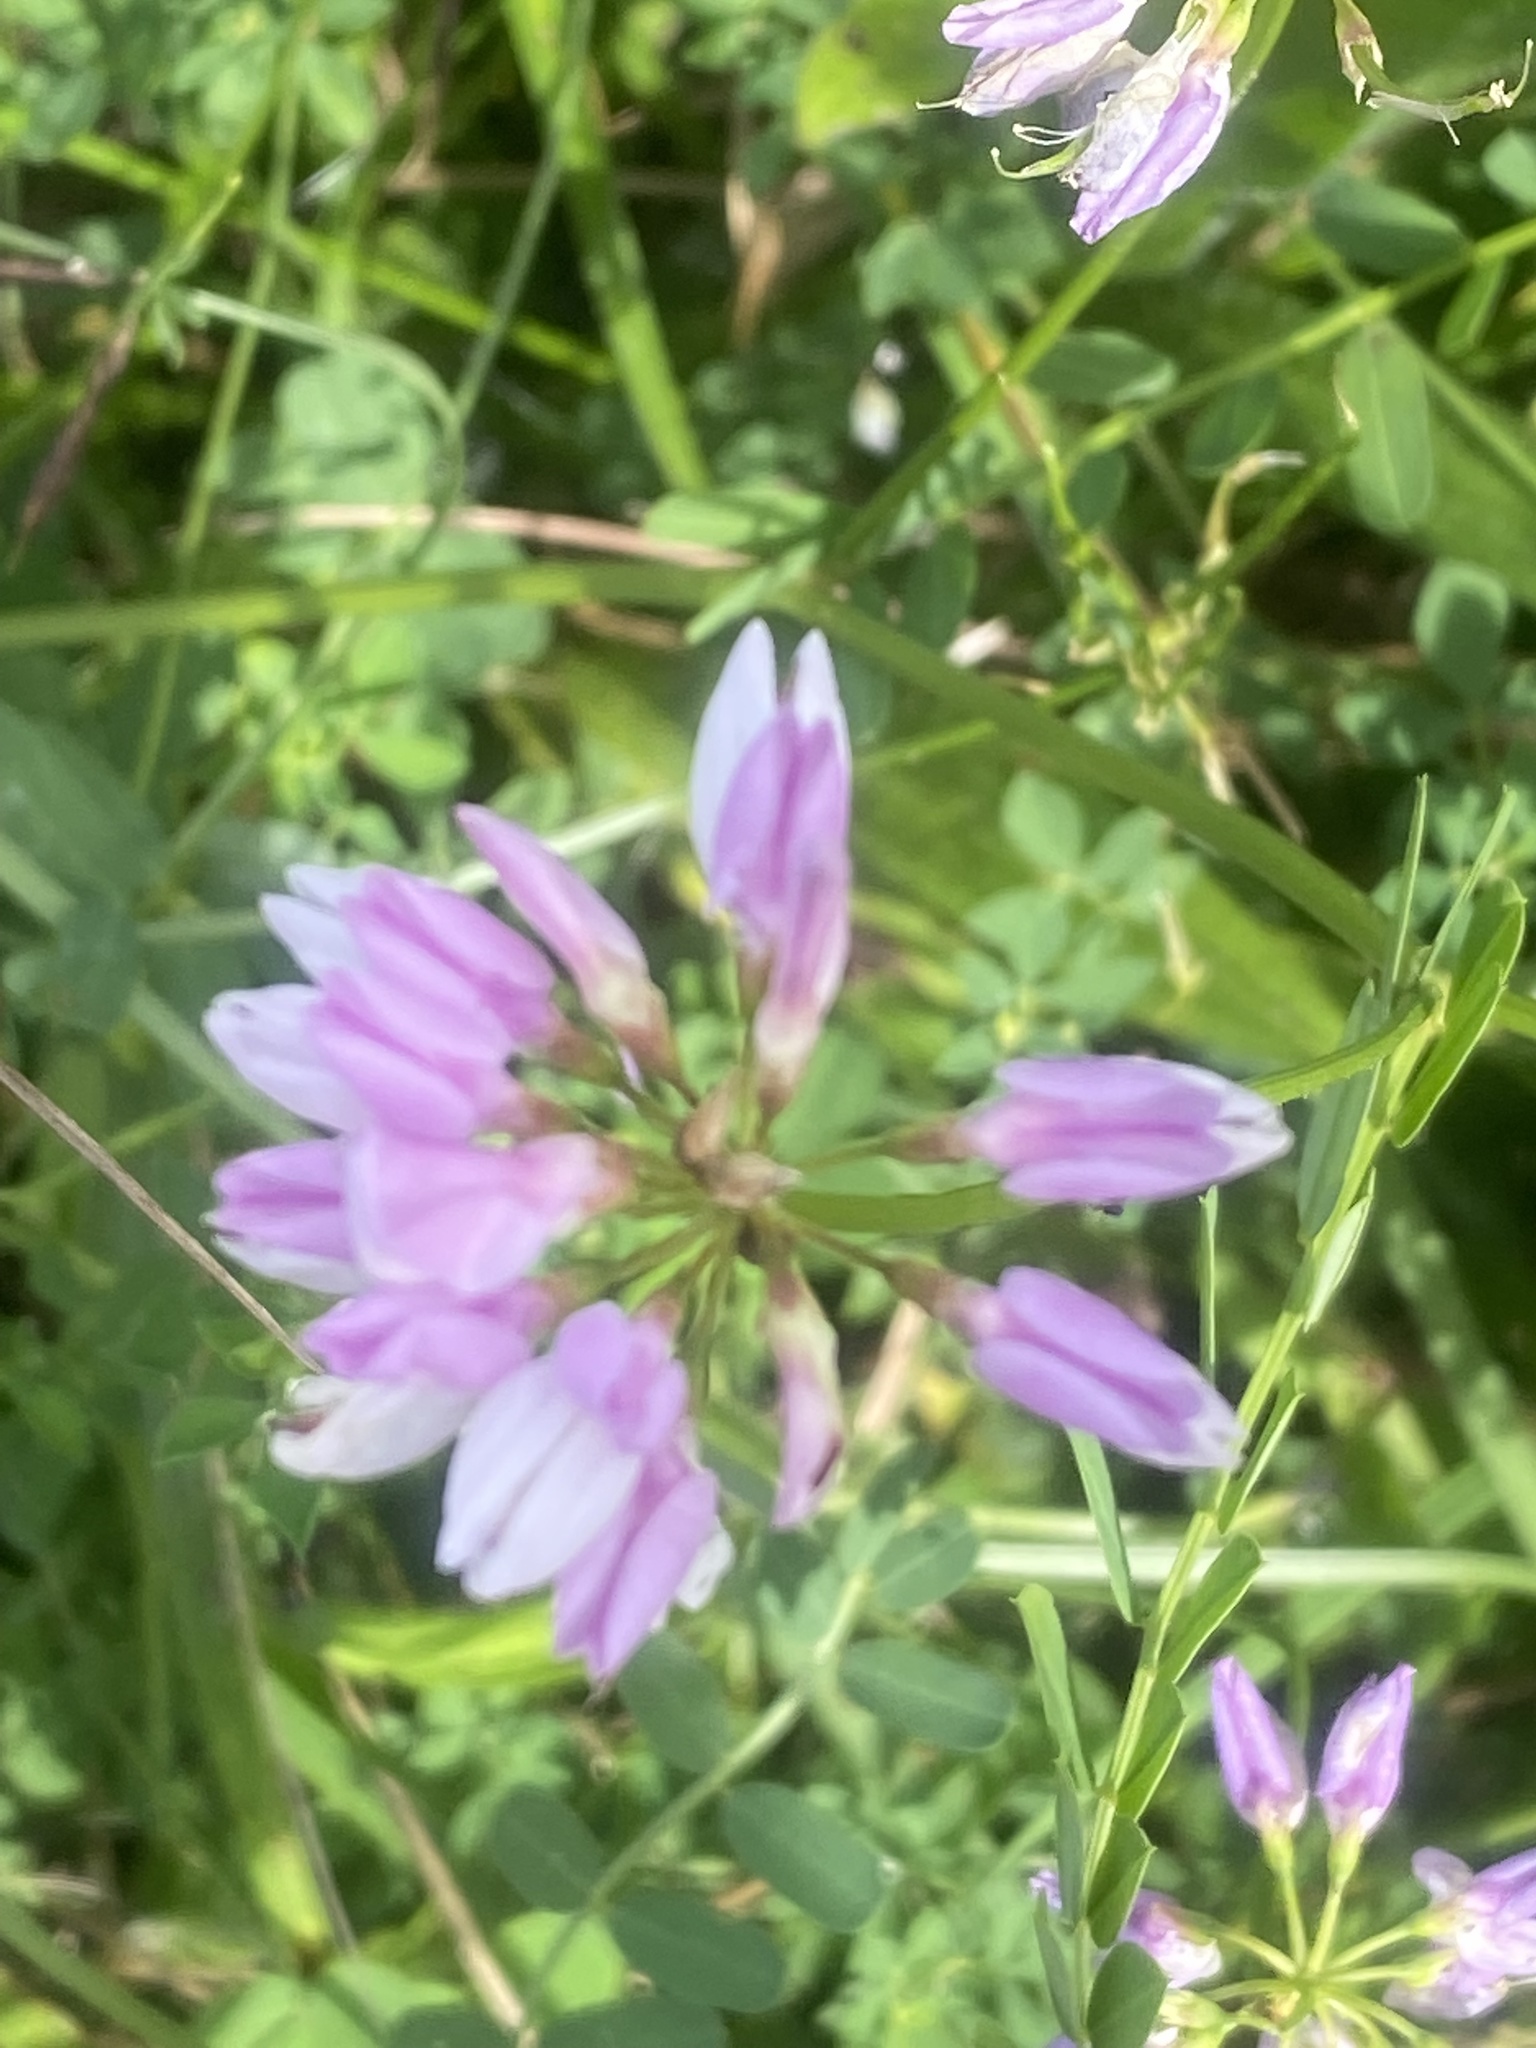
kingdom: Plantae
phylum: Tracheophyta
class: Magnoliopsida
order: Fabales
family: Fabaceae
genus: Coronilla
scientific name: Coronilla varia
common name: Crownvetch
